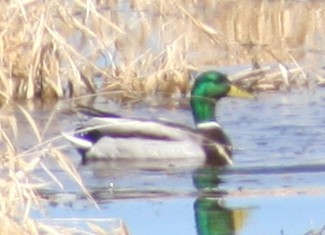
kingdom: Animalia
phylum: Chordata
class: Aves
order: Anseriformes
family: Anatidae
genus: Anas
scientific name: Anas platyrhynchos
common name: Mallard
